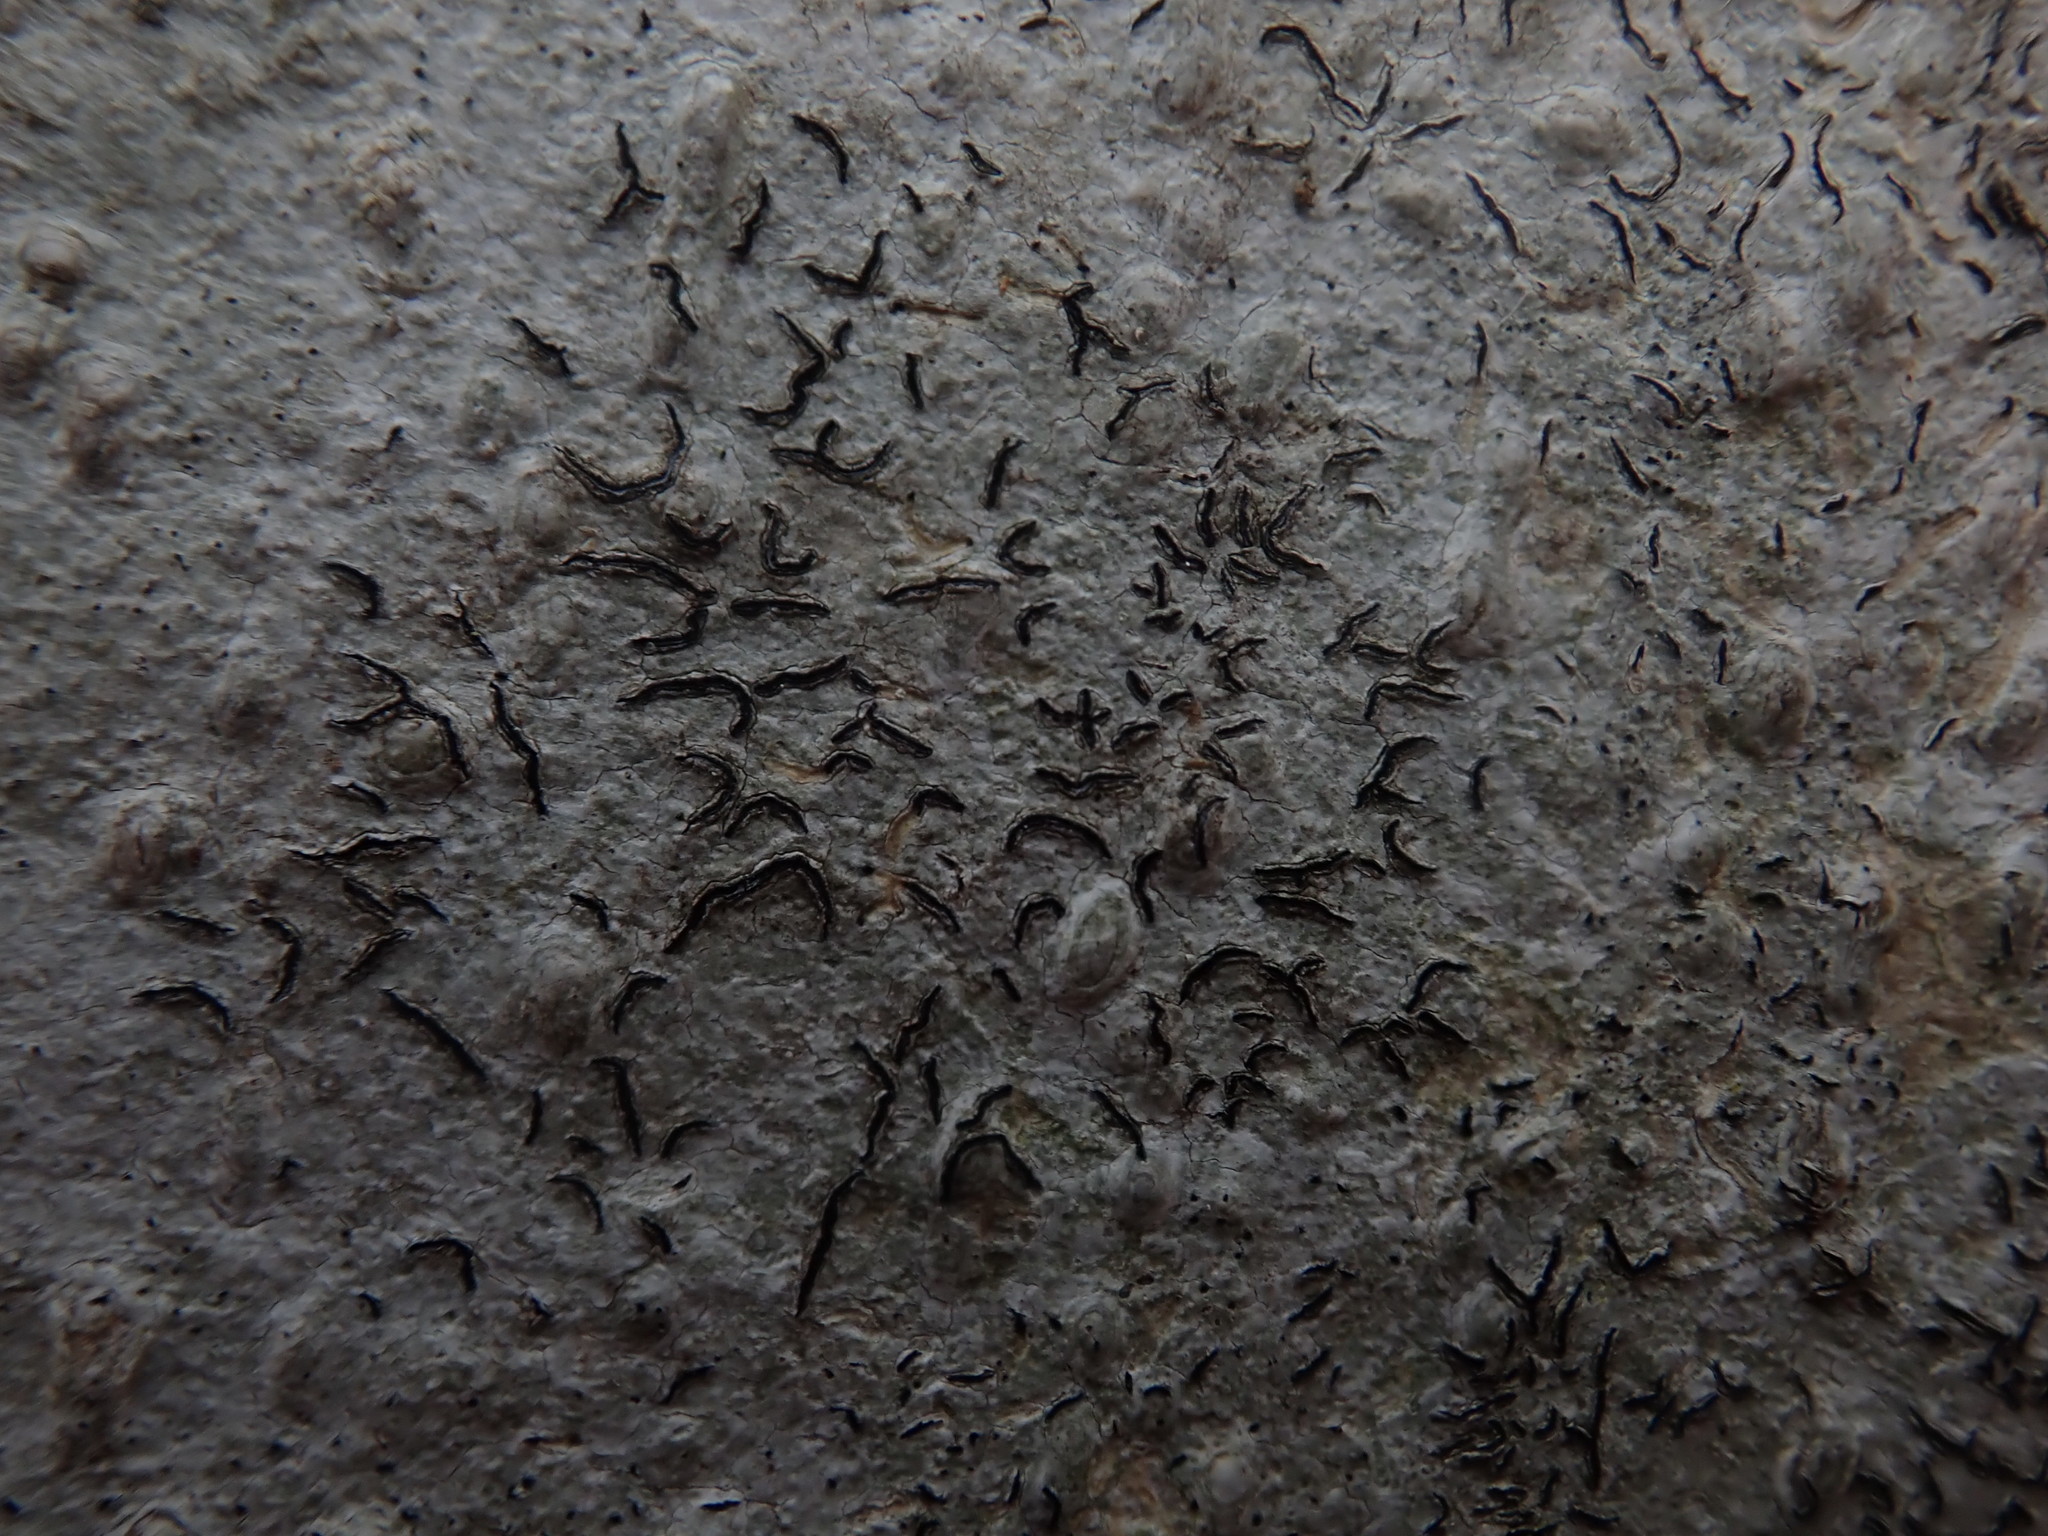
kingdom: Fungi
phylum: Ascomycota
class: Lecanoromycetes
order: Ostropales
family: Graphidaceae
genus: Graphis
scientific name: Graphis scripta
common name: Script lichen
